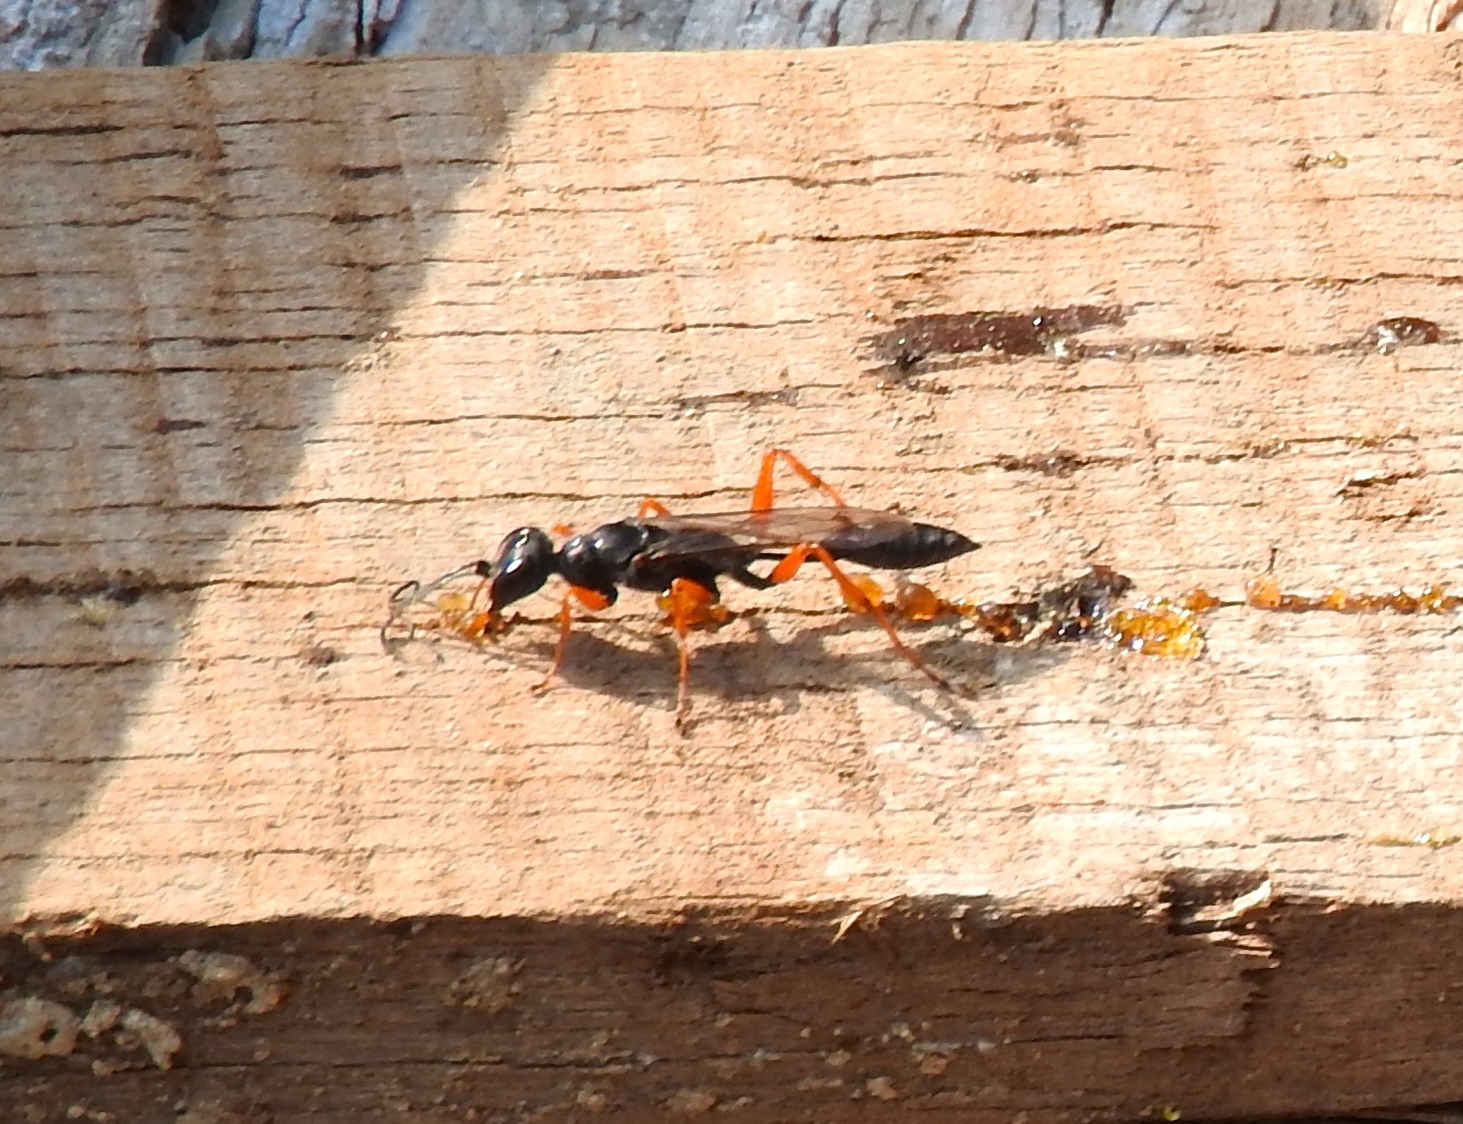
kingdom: Animalia
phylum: Arthropoda
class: Insecta
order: Hymenoptera
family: Sphecidae
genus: Podium
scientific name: Podium krombeini
